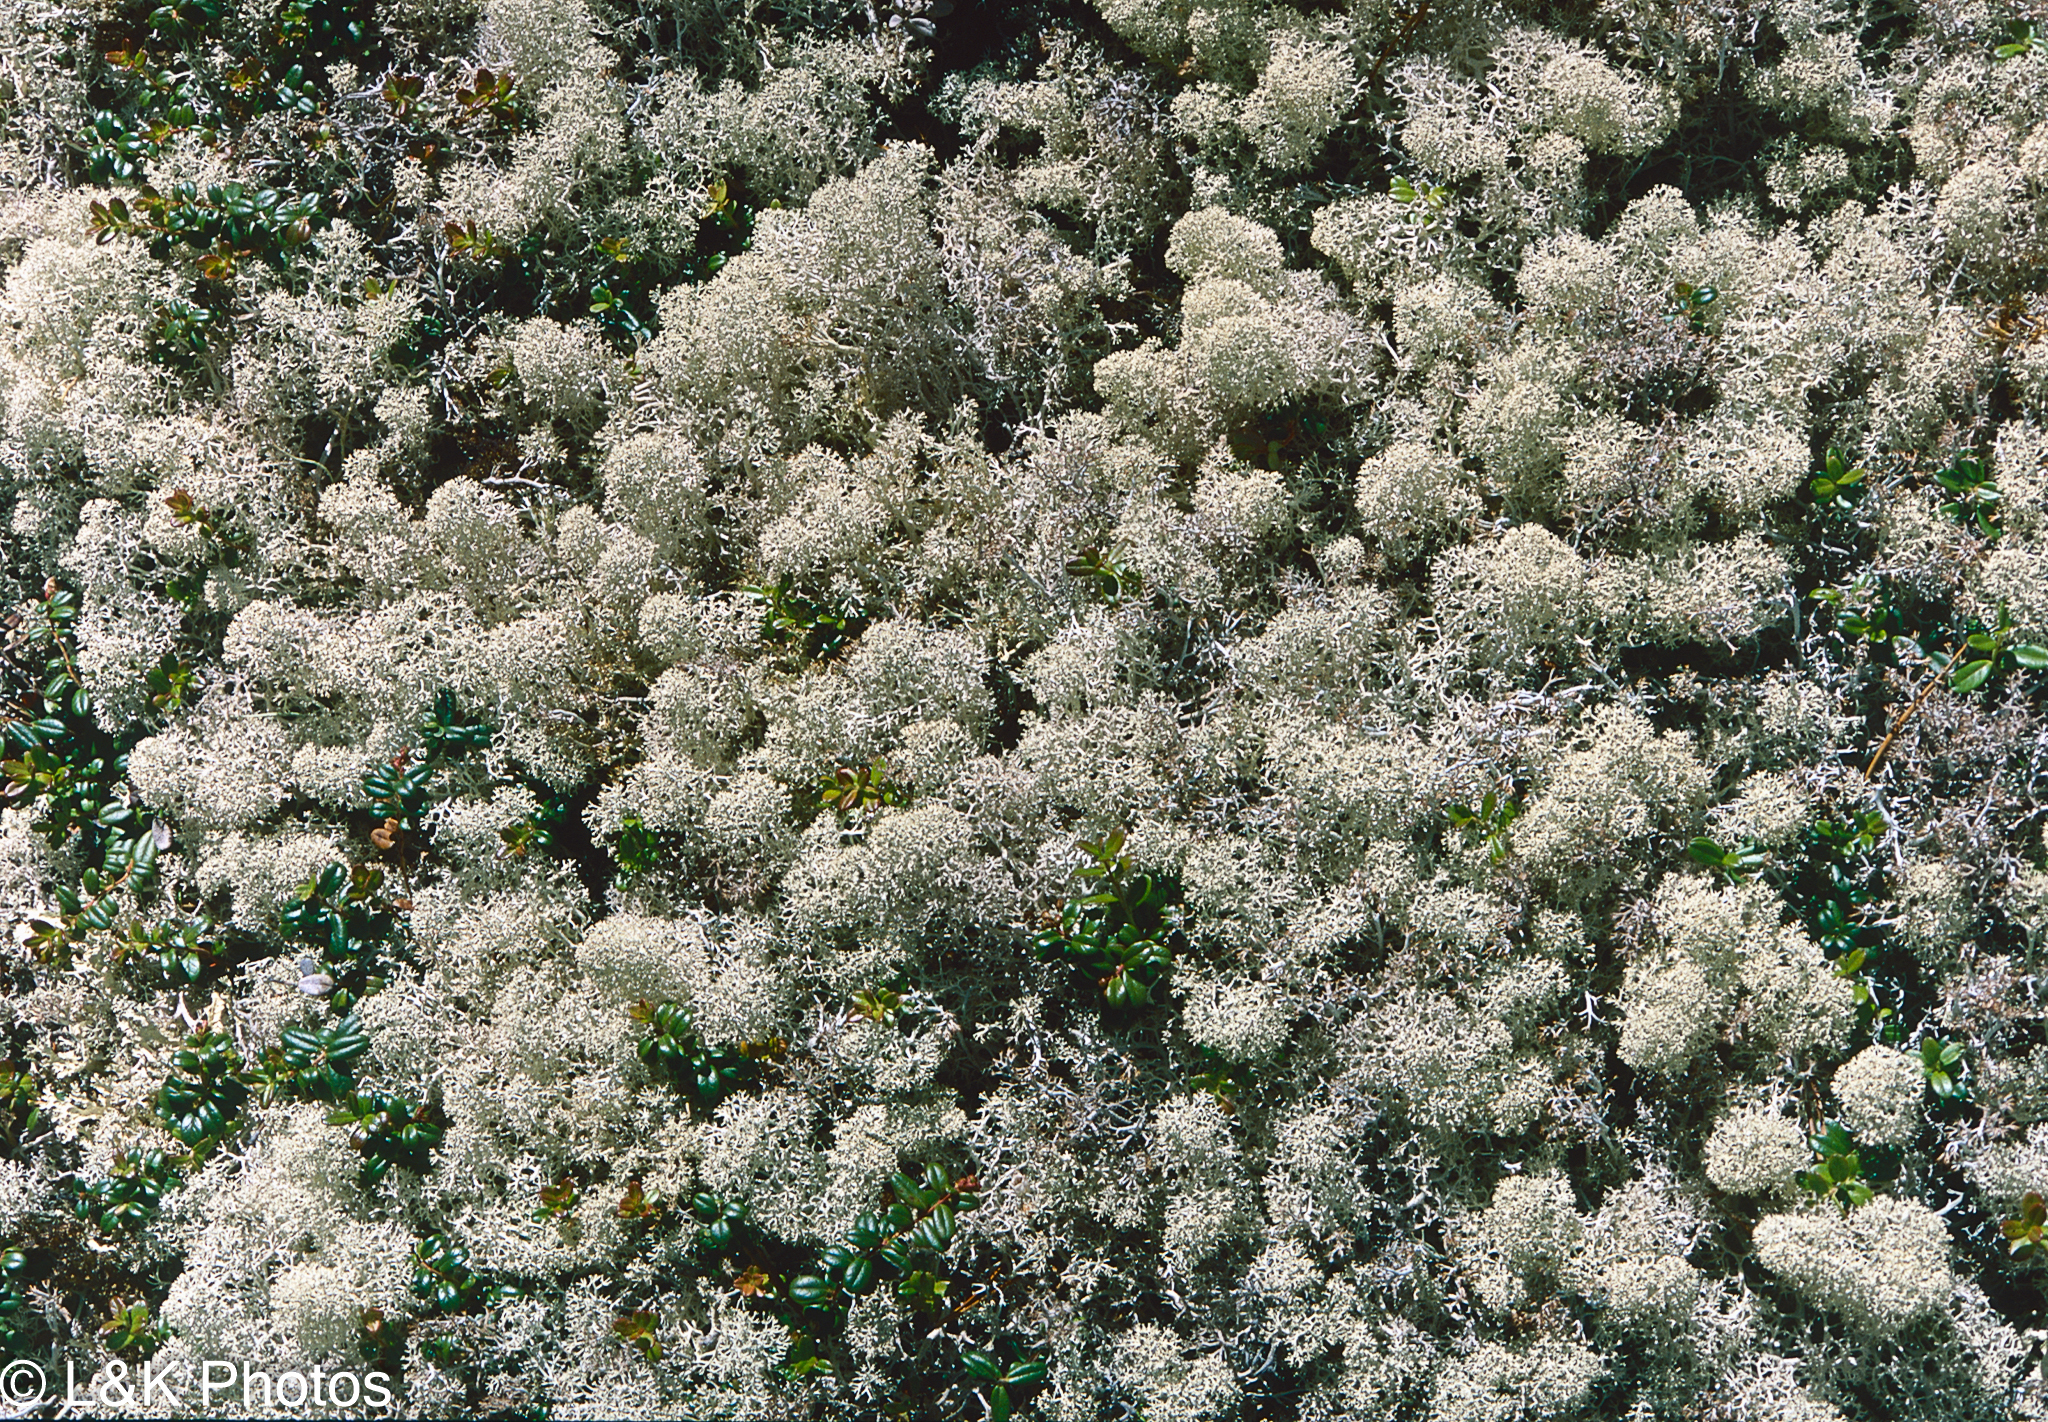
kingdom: Fungi
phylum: Ascomycota
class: Lecanoromycetes
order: Lecanorales
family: Cladoniaceae
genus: Cladonia
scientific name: Cladonia stellaris
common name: Star-tipped reindeer lichen
